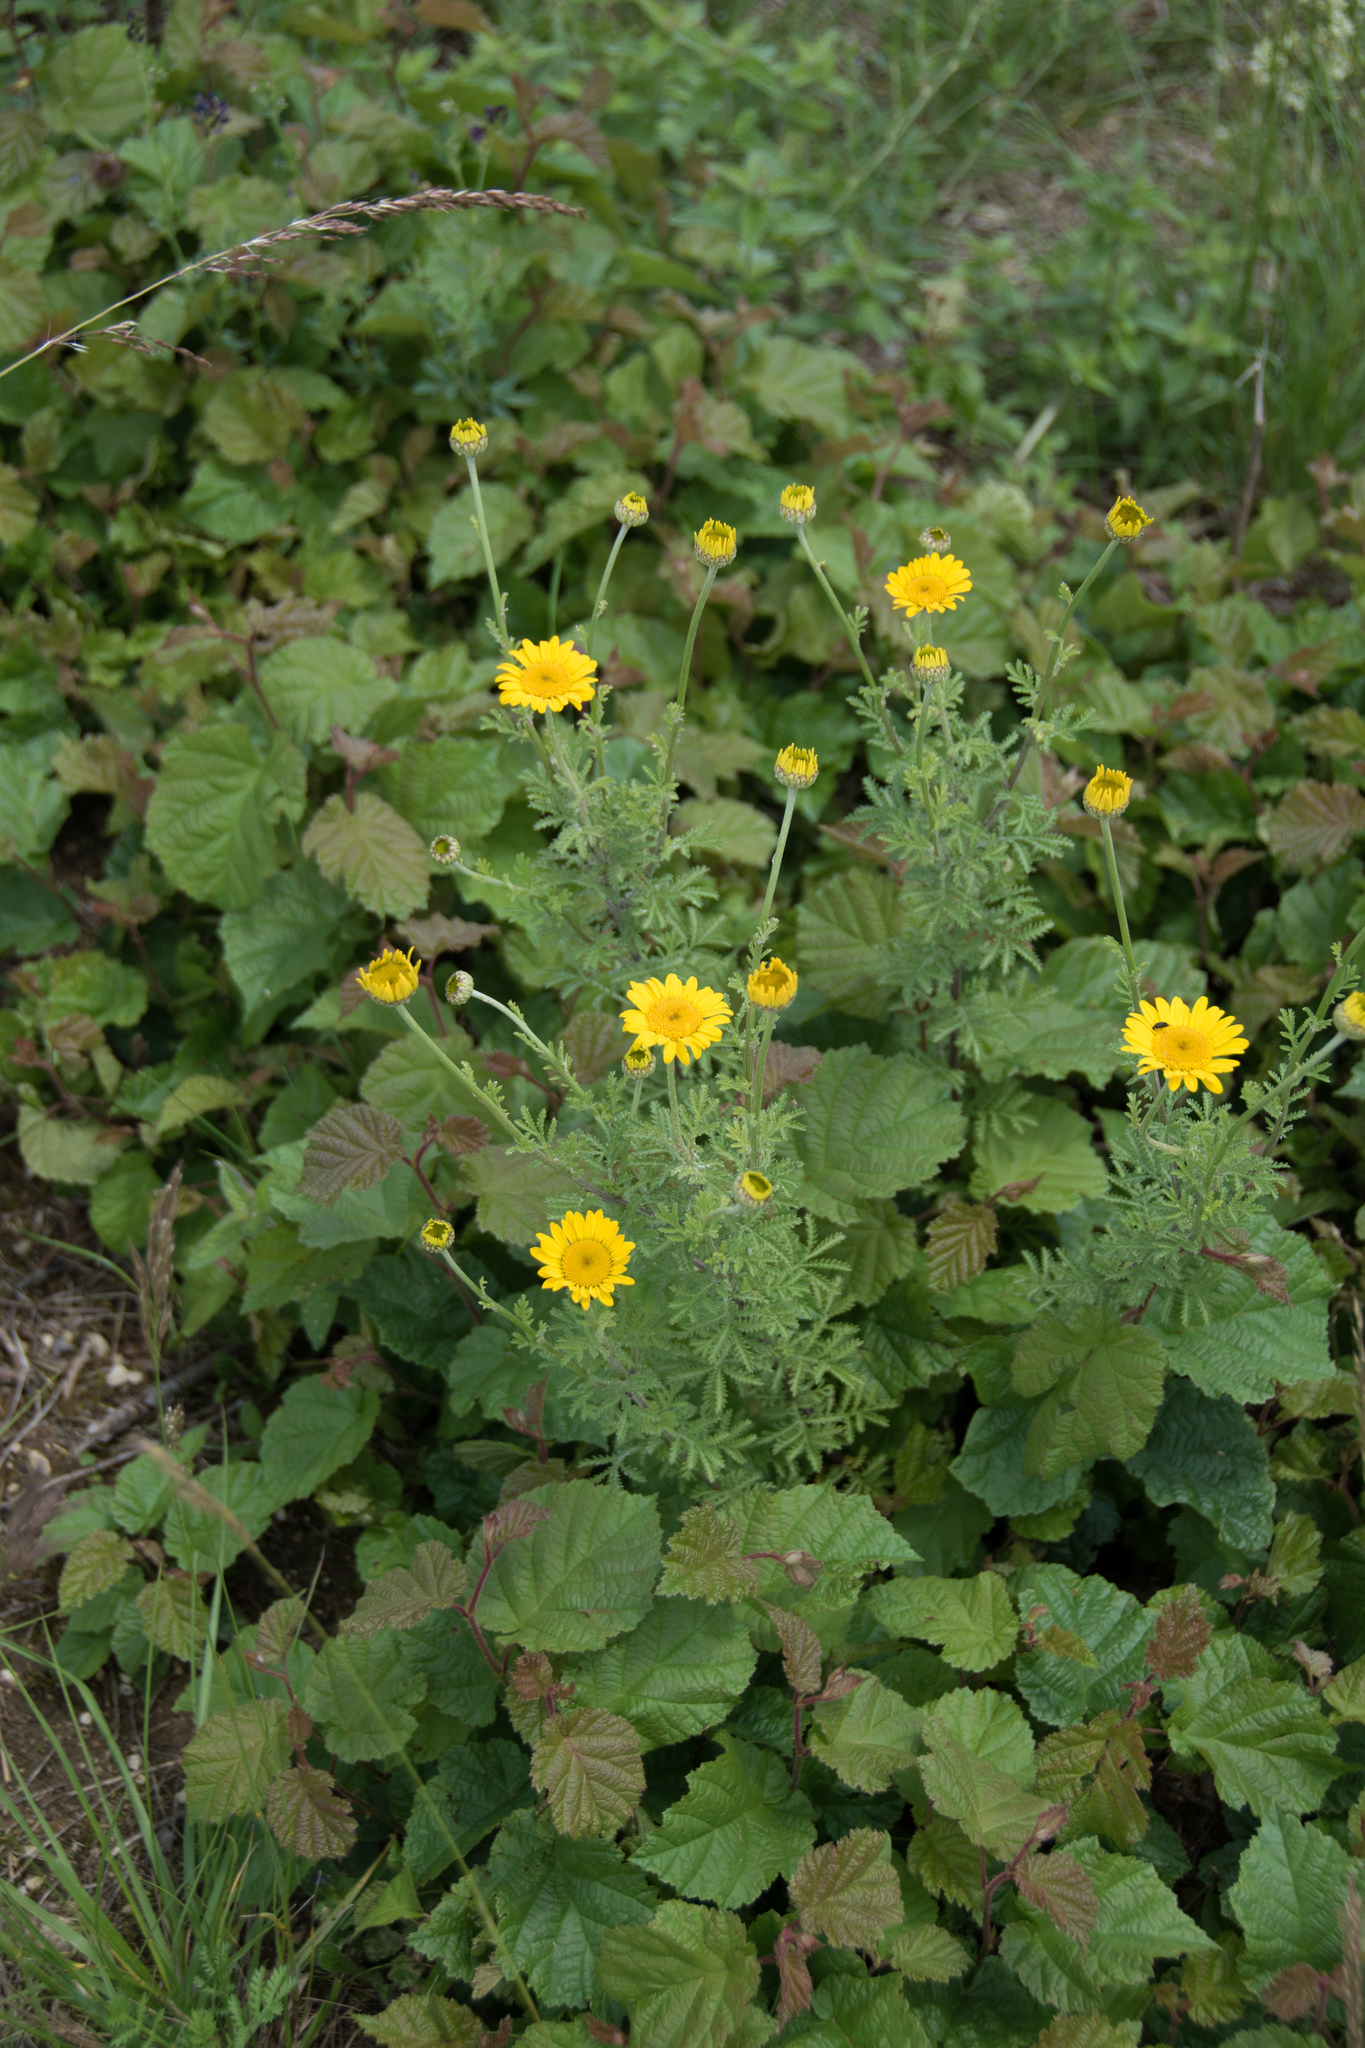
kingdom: Plantae
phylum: Tracheophyta
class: Magnoliopsida
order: Asterales
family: Asteraceae
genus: Cota
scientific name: Cota tinctoria
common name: Golden chamomile
